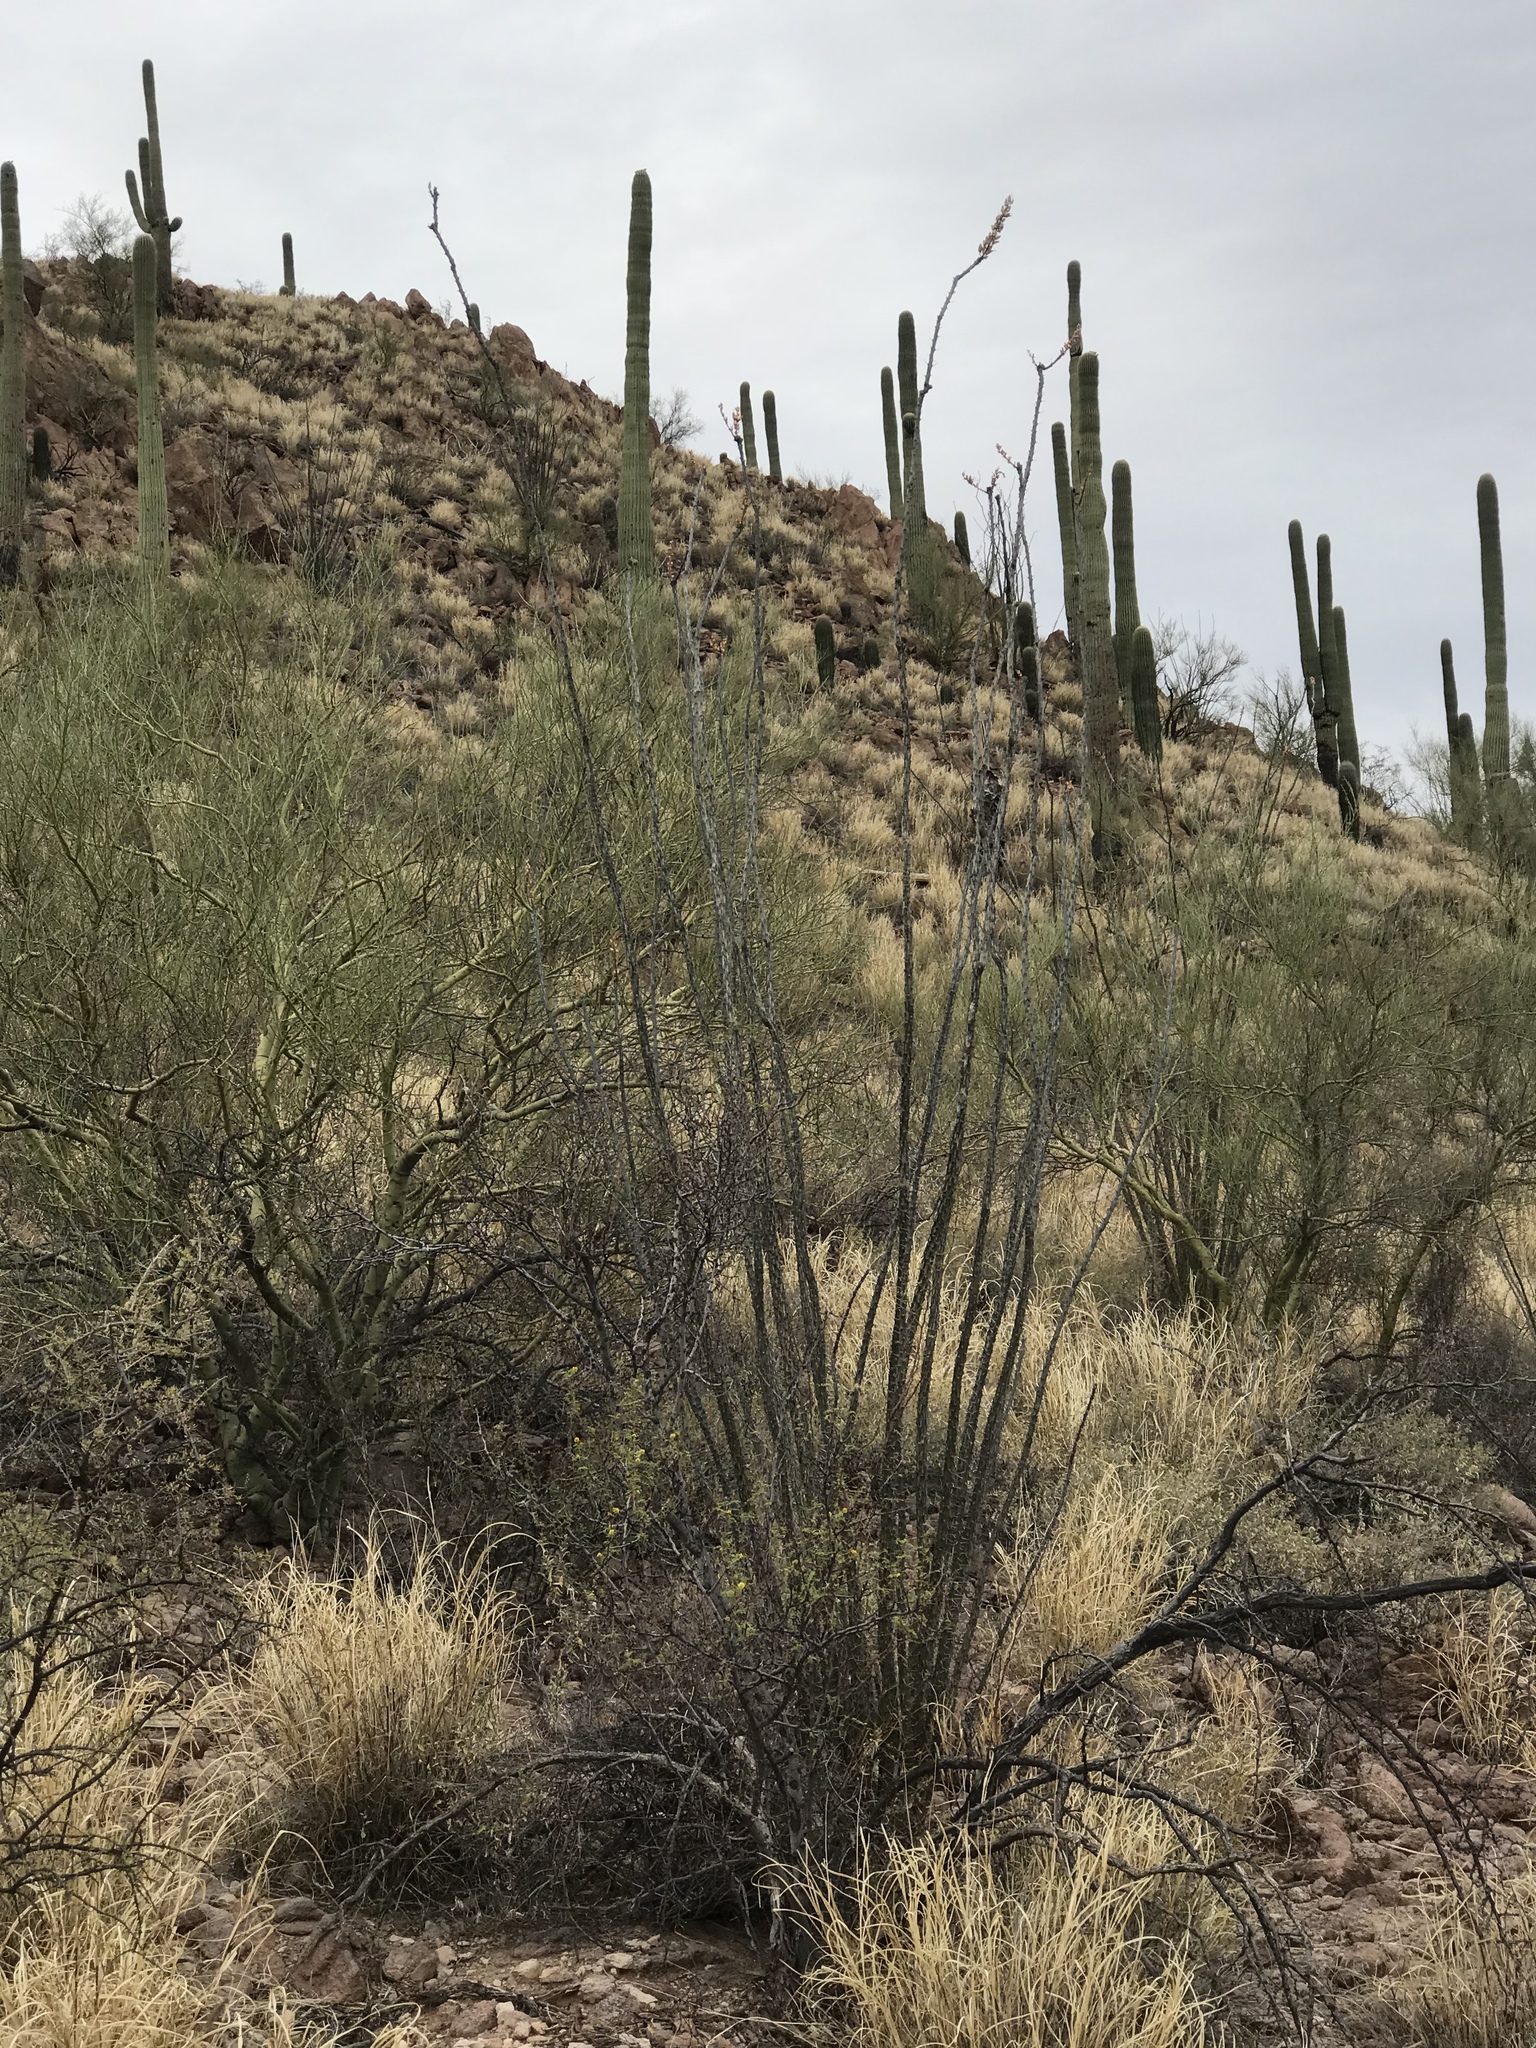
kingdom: Plantae
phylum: Tracheophyta
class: Magnoliopsida
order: Ericales
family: Fouquieriaceae
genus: Fouquieria
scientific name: Fouquieria splendens
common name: Vine-cactus
